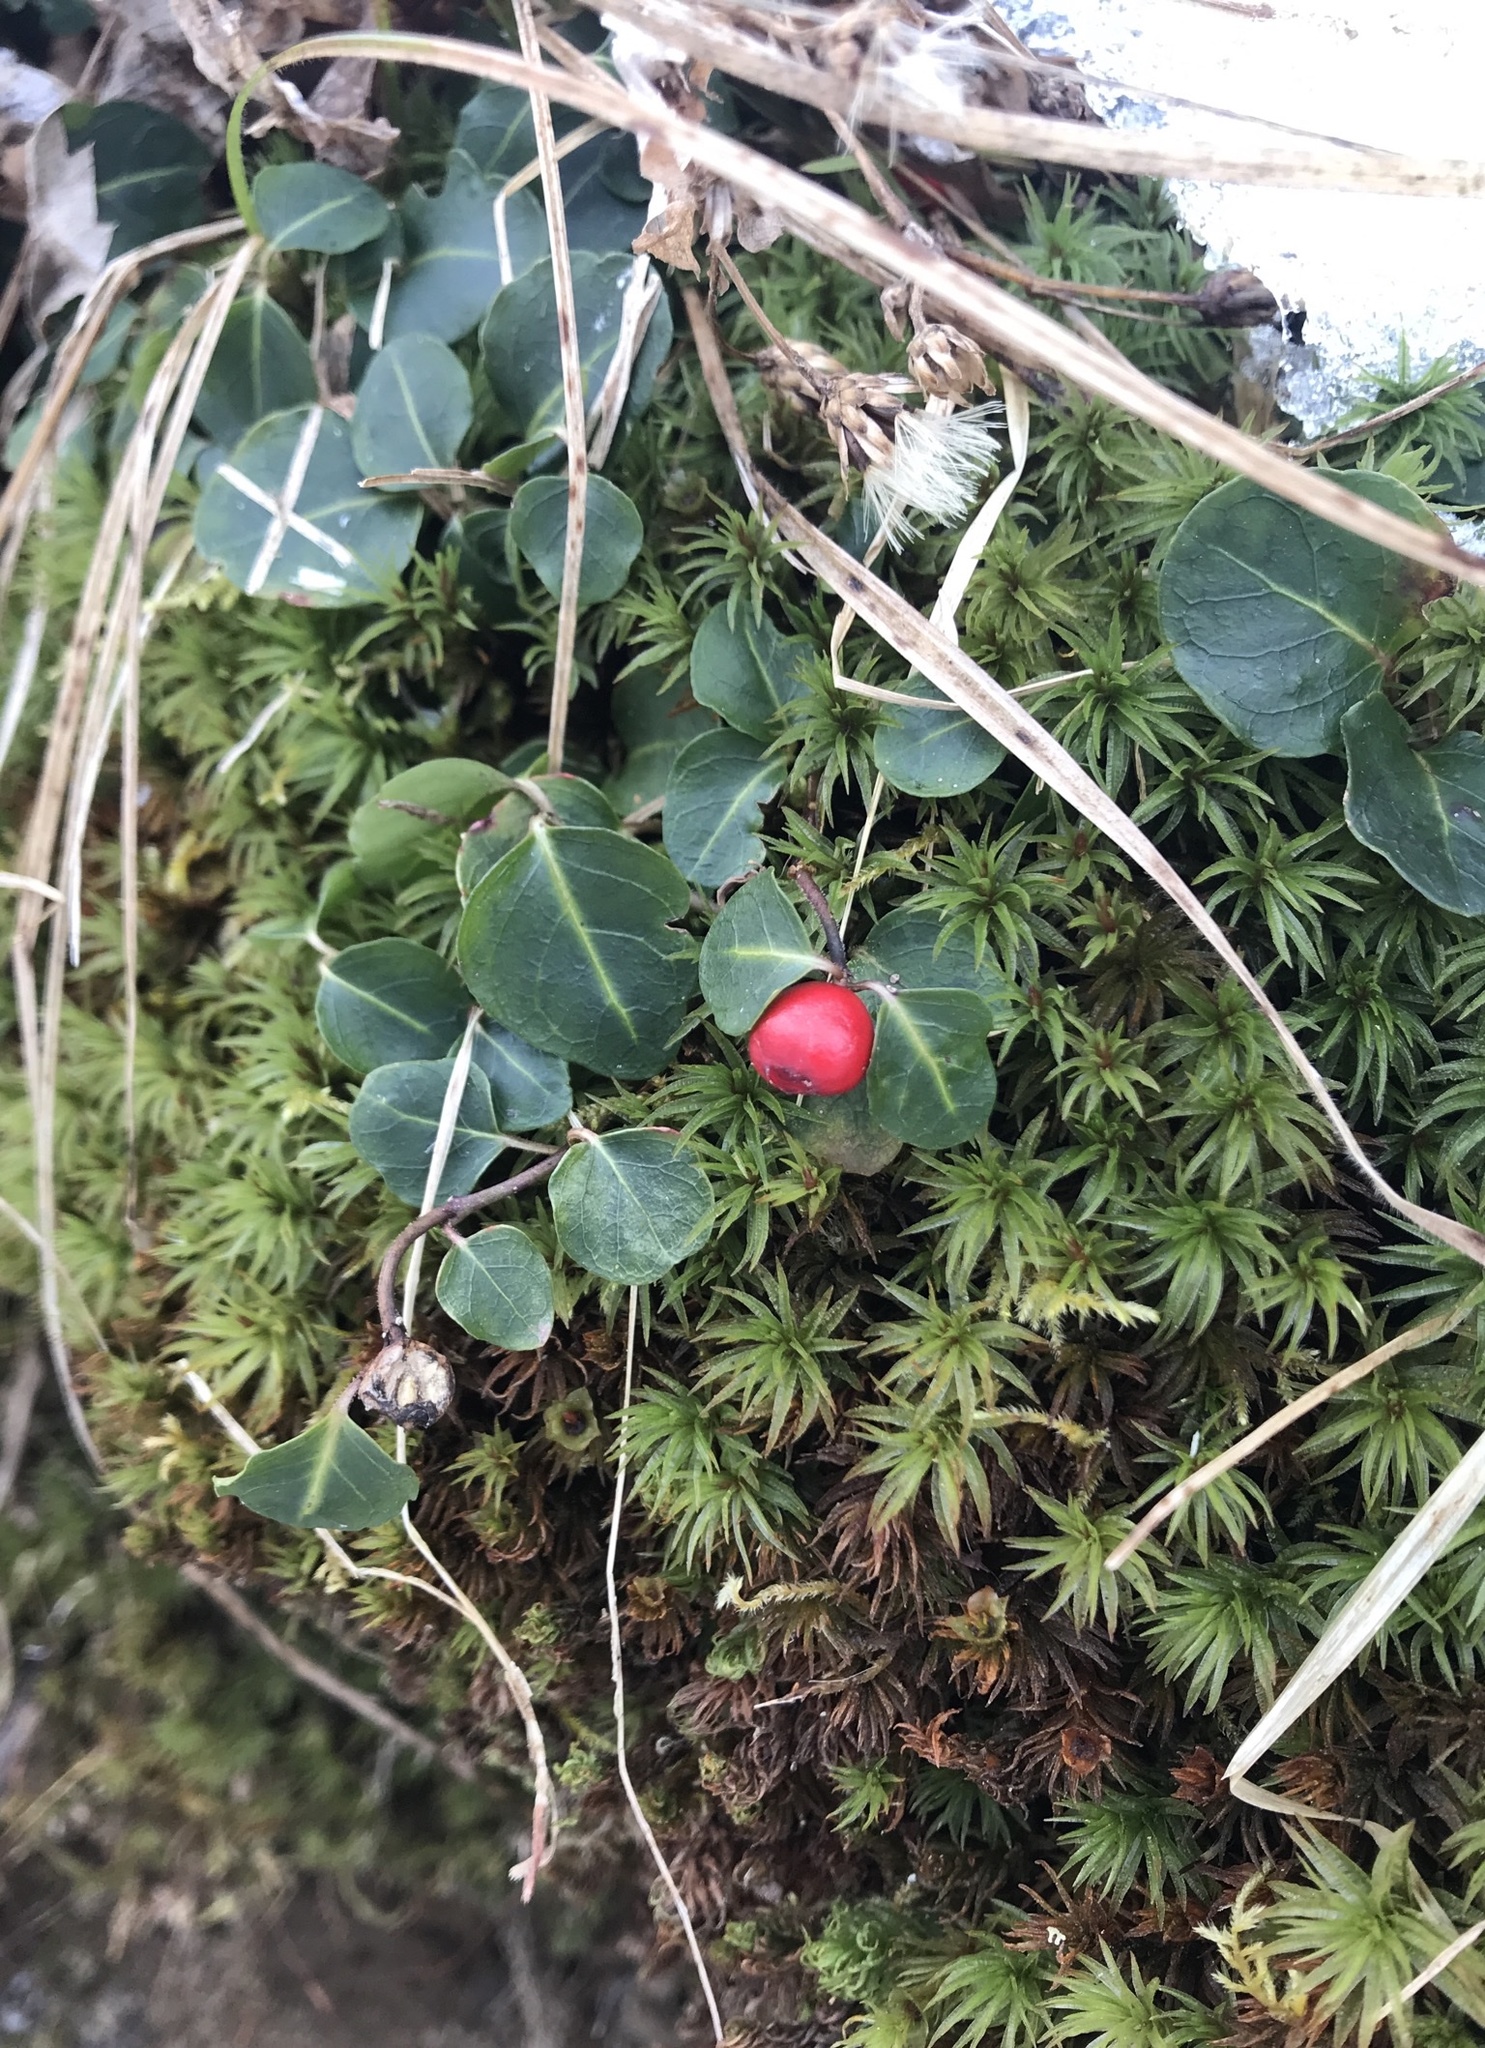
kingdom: Plantae
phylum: Tracheophyta
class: Magnoliopsida
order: Gentianales
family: Rubiaceae
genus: Mitchella
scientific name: Mitchella repens
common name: Partridge-berry
